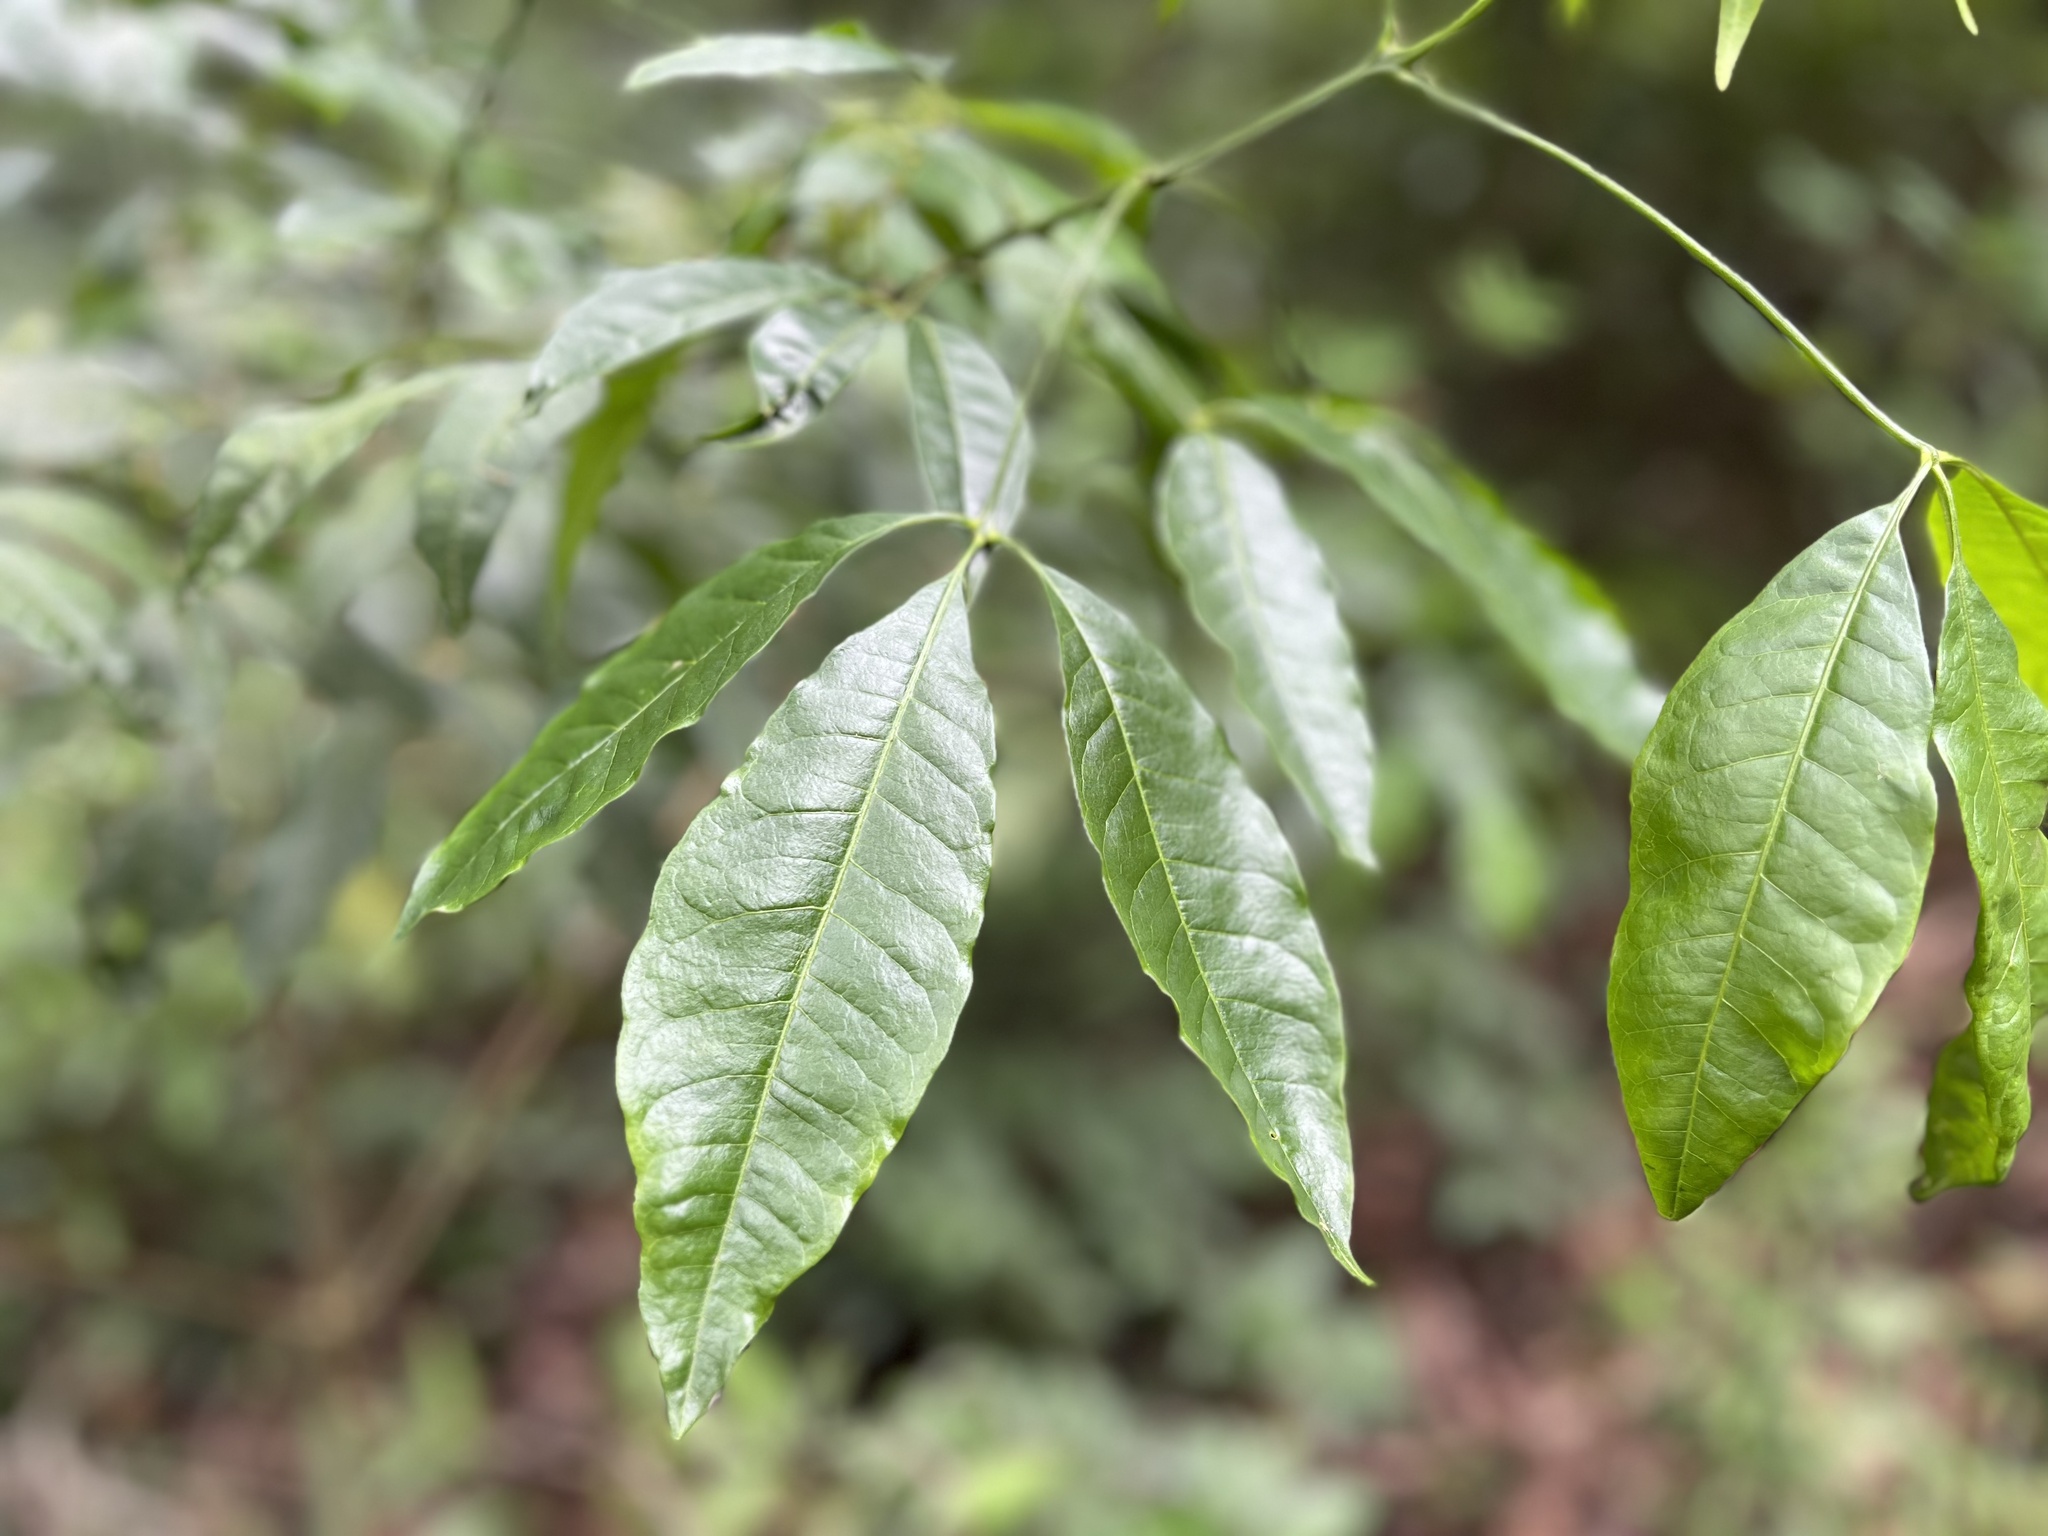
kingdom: Plantae
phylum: Tracheophyta
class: Magnoliopsida
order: Sapindales
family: Rutaceae
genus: Melicope
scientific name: Melicope pteleifolia
